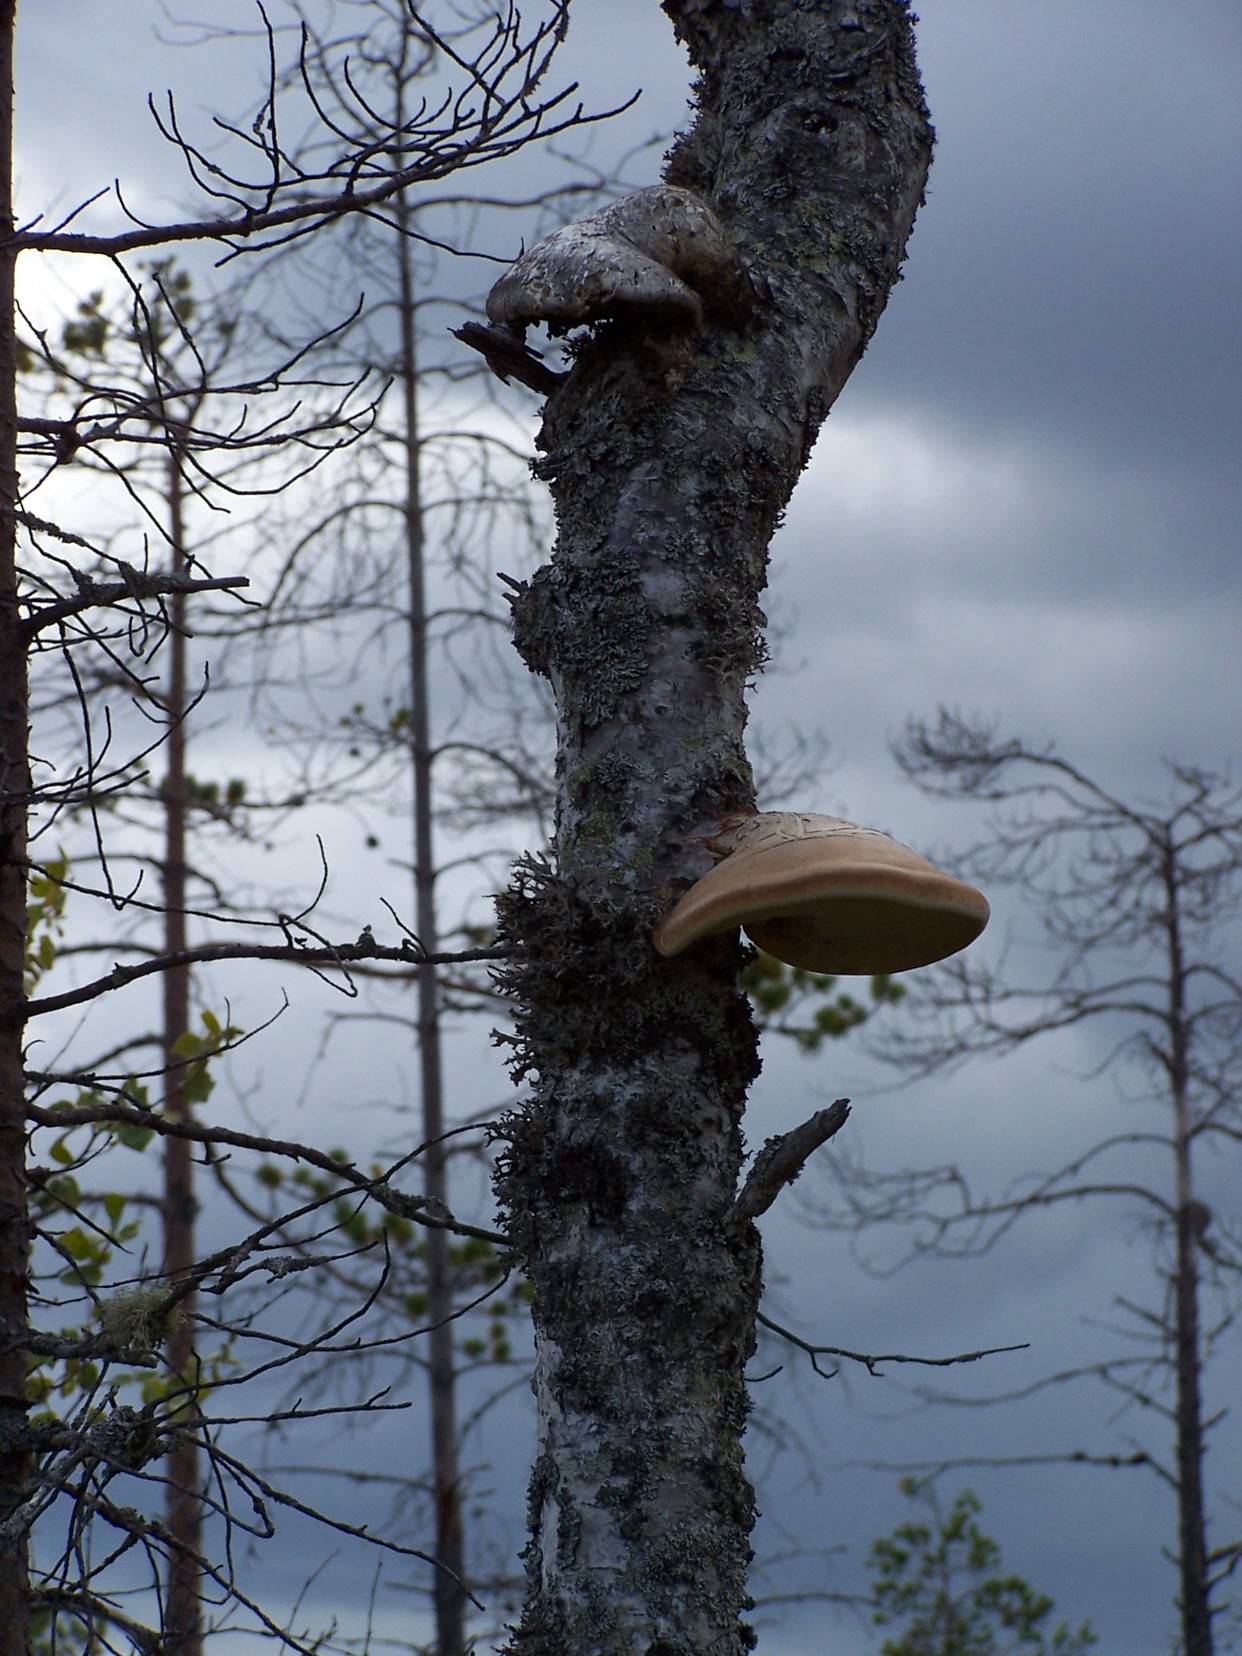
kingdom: Fungi
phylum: Basidiomycota
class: Agaricomycetes
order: Polyporales
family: Fomitopsidaceae
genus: Fomitopsis
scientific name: Fomitopsis betulina
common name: Birch polypore
